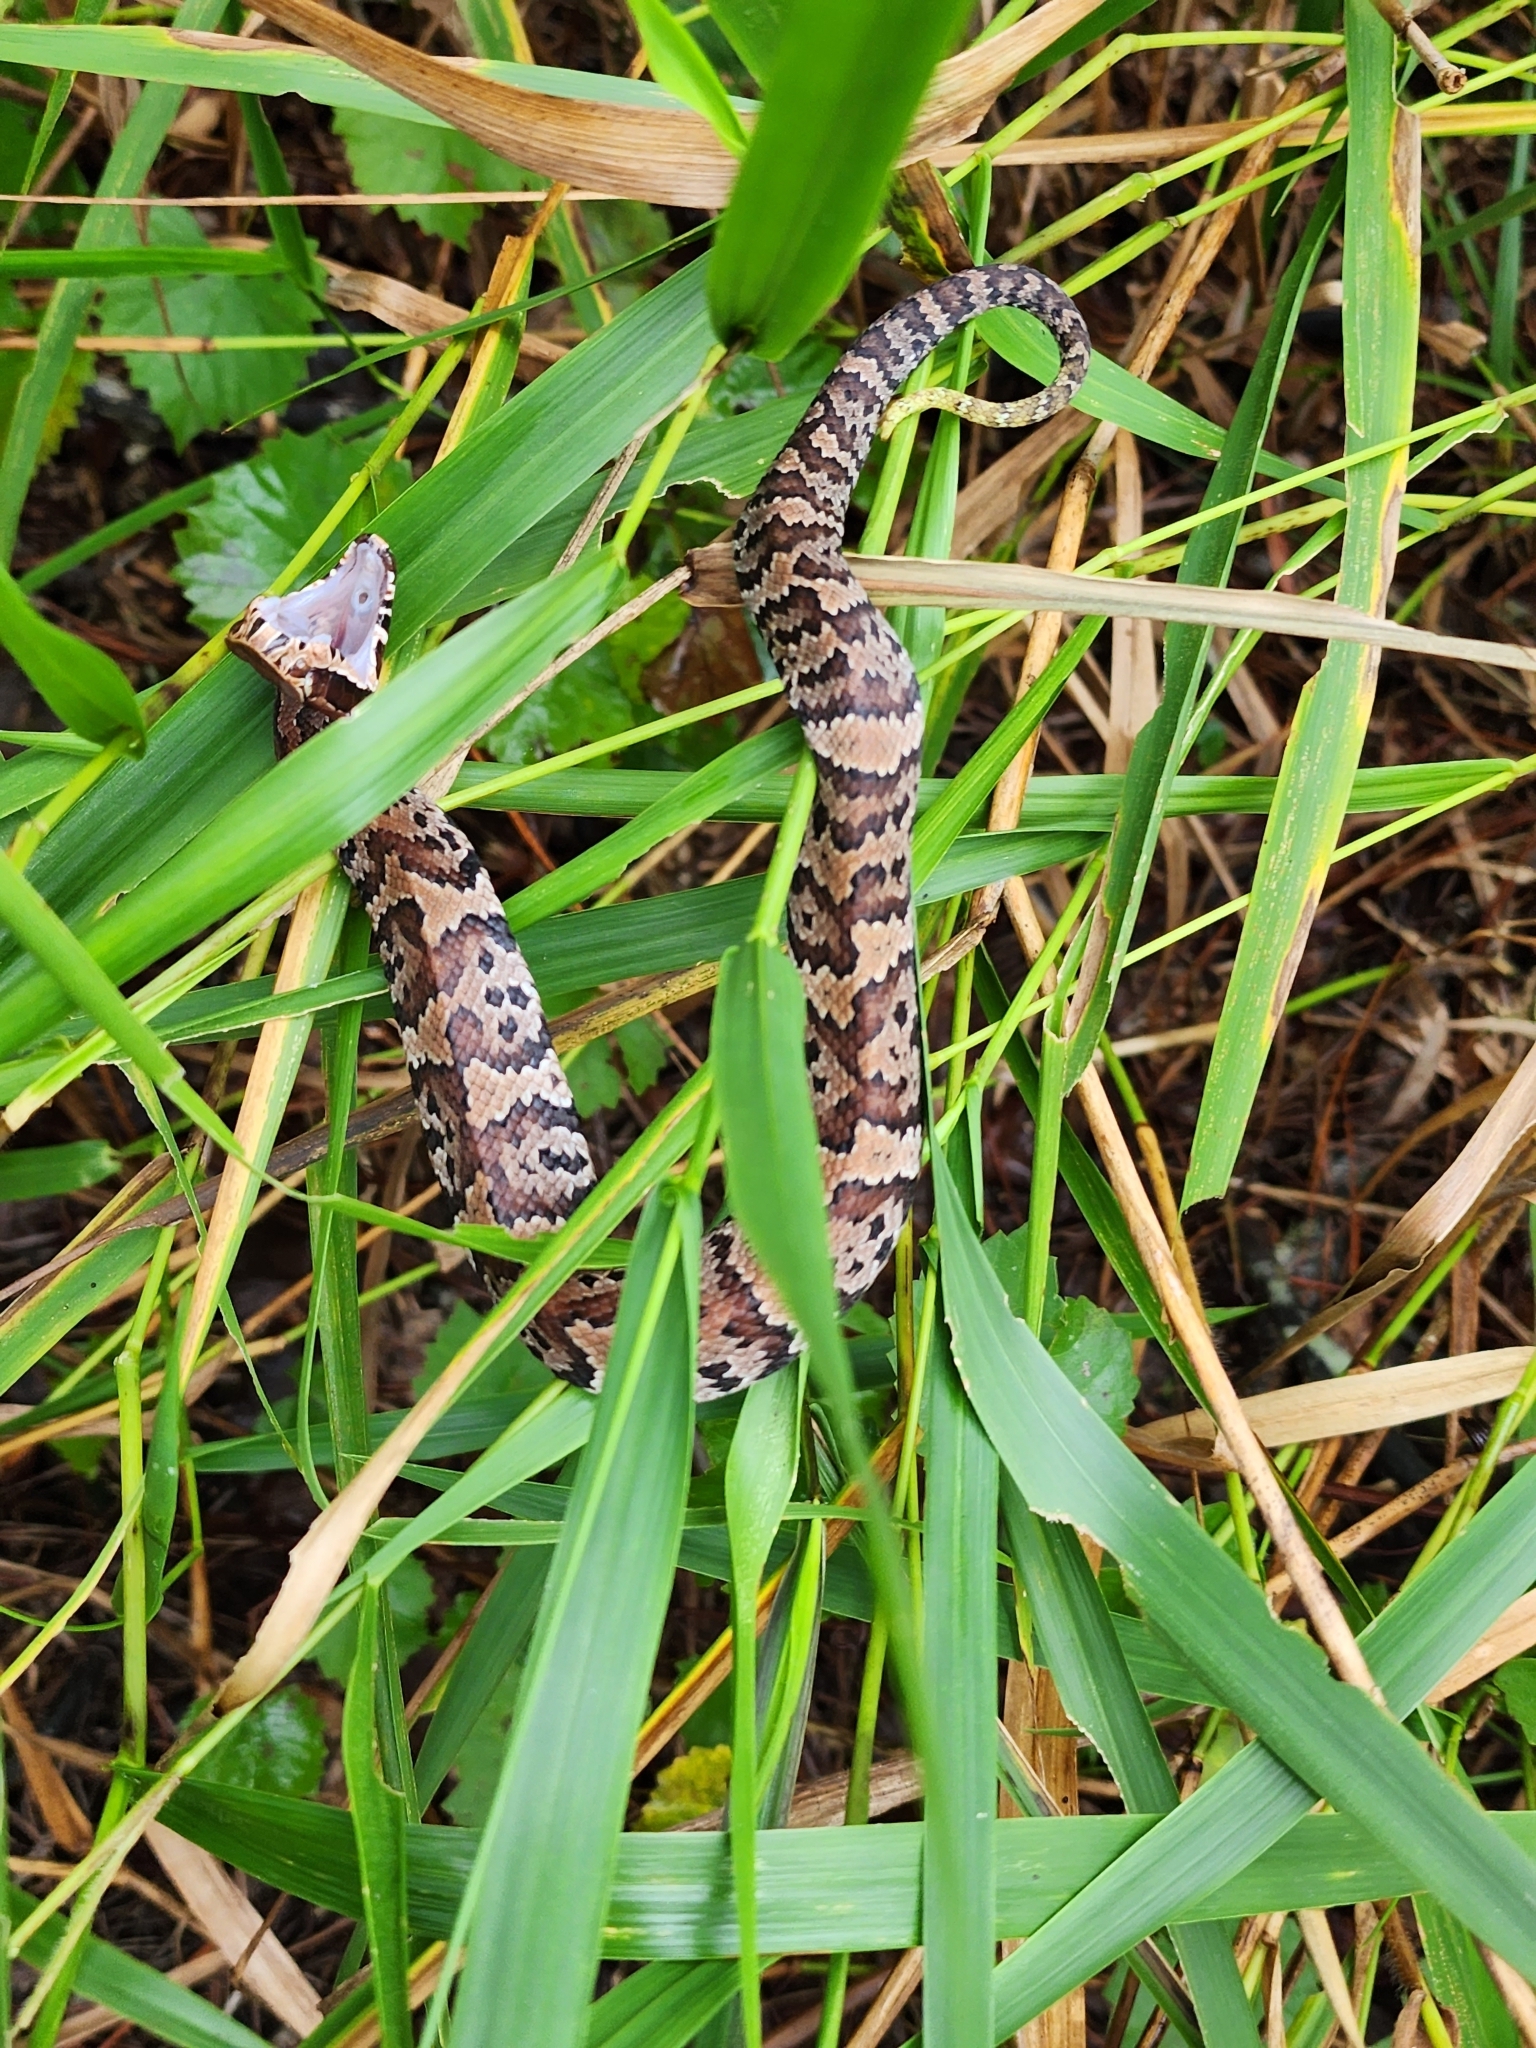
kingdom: Animalia
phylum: Chordata
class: Squamata
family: Viperidae
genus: Agkistrodon
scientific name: Agkistrodon conanti
